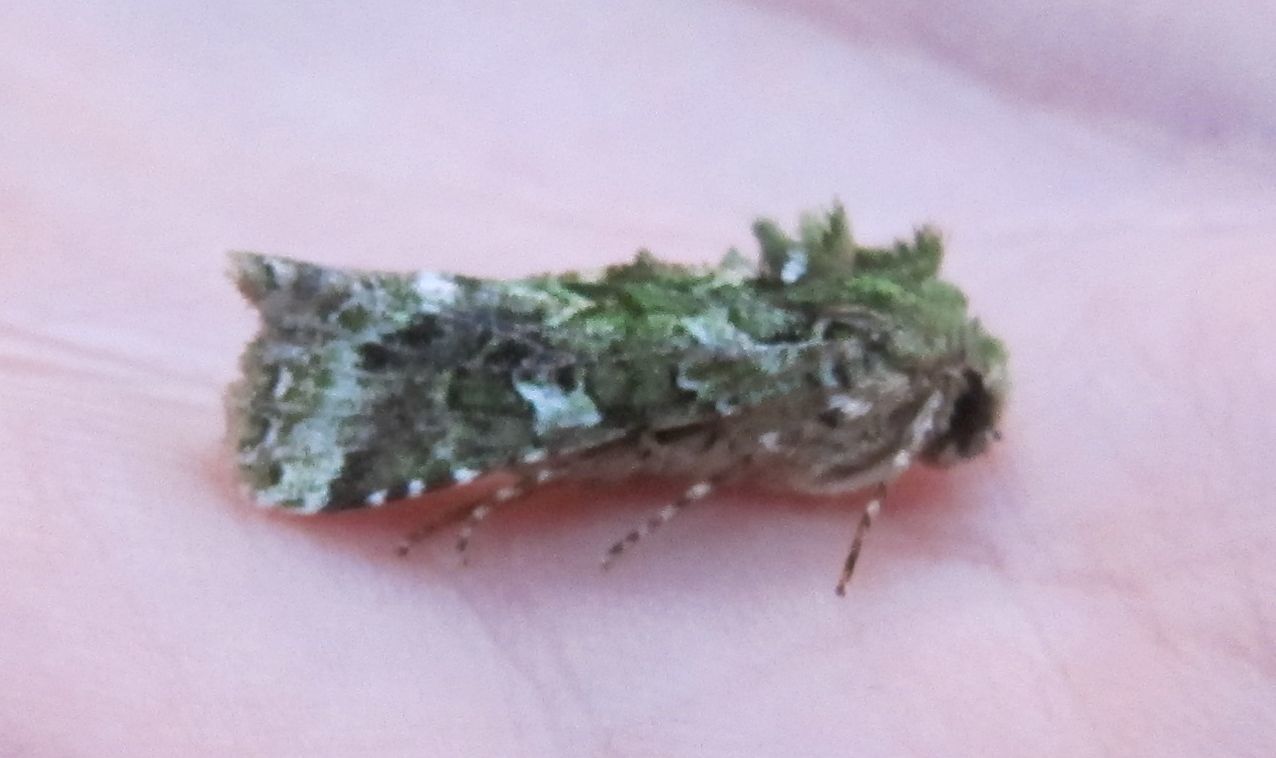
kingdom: Animalia
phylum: Arthropoda
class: Insecta
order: Lepidoptera
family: Noctuidae
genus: Feredayia
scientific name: Feredayia grammosa
